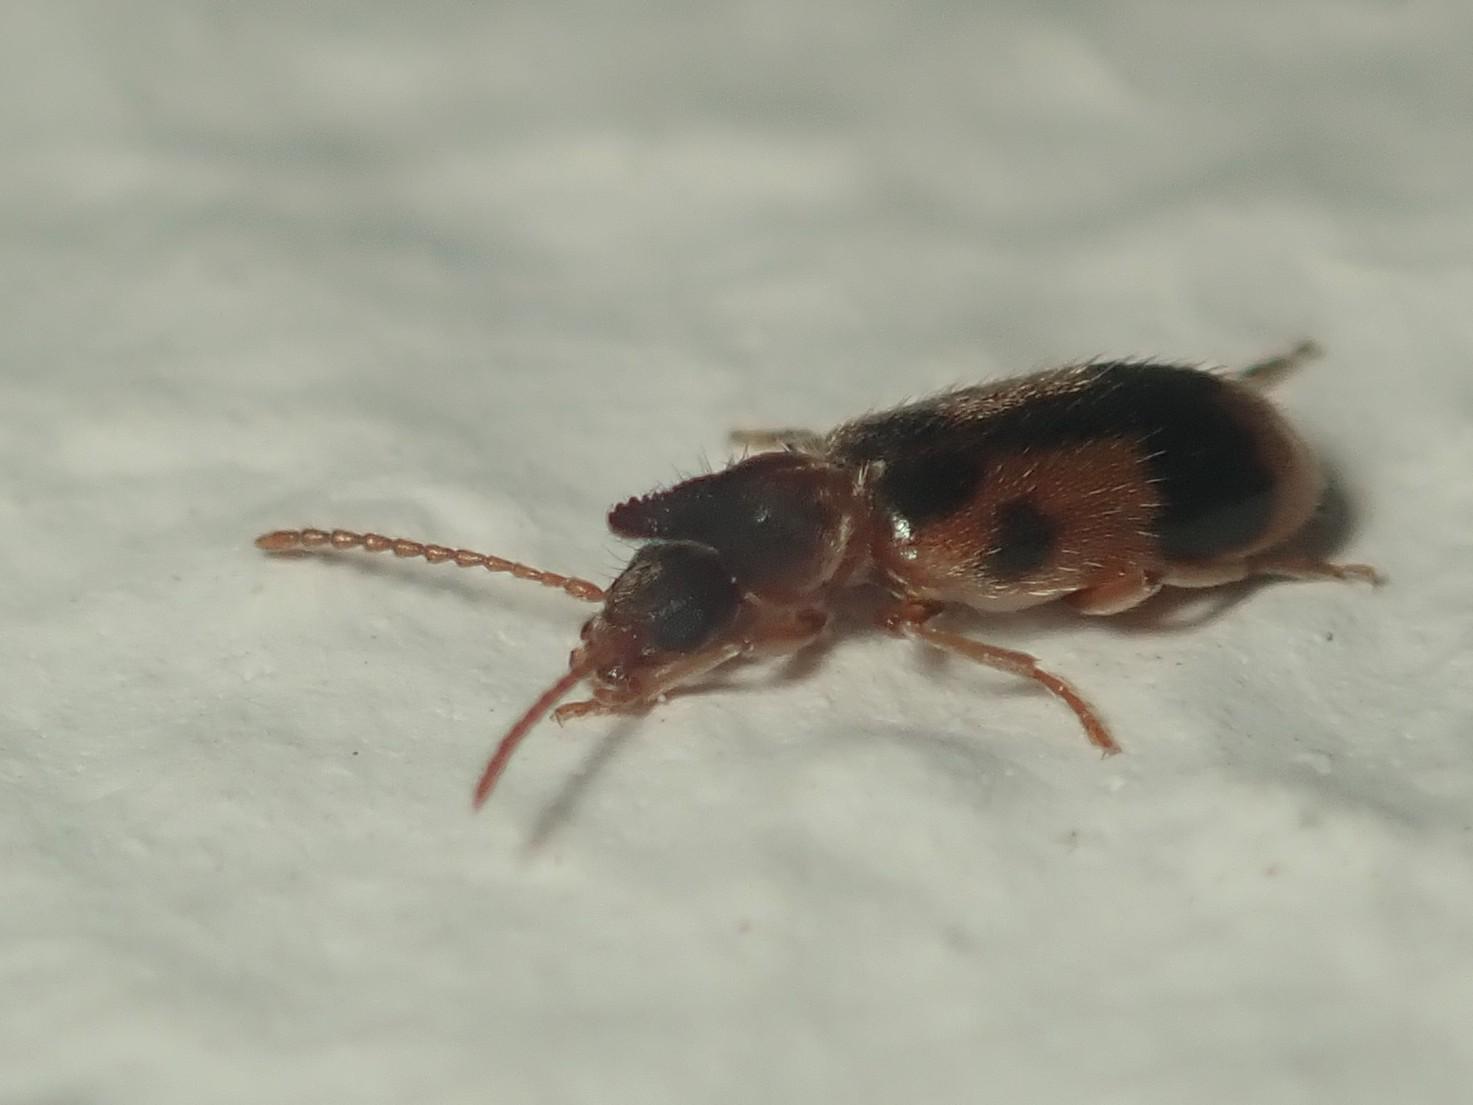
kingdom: Animalia
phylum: Arthropoda
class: Insecta
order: Coleoptera
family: Anthicidae
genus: Notoxus
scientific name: Notoxus monoceros
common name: Monoceros beetle
